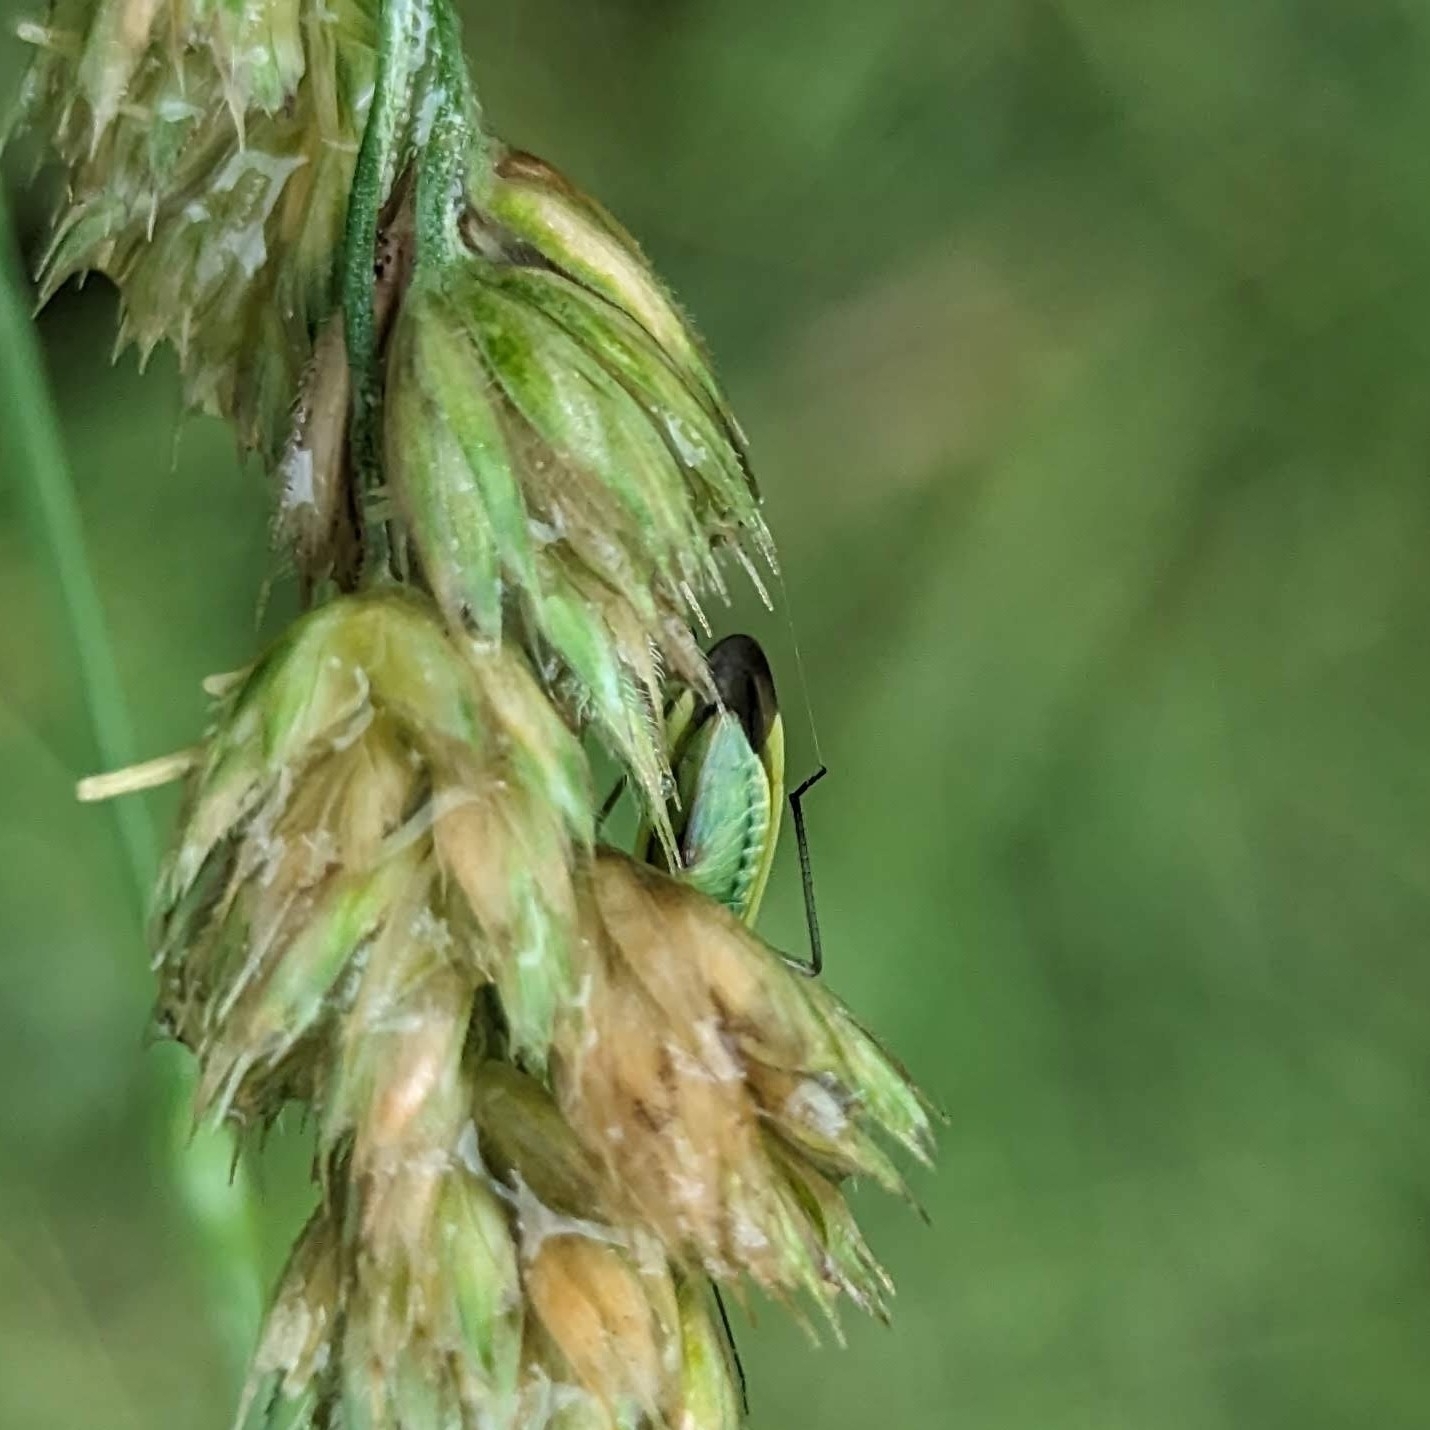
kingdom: Animalia
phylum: Arthropoda
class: Insecta
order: Hemiptera
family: Miridae
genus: Stenotus
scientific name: Stenotus binotatus
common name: Plant bug
